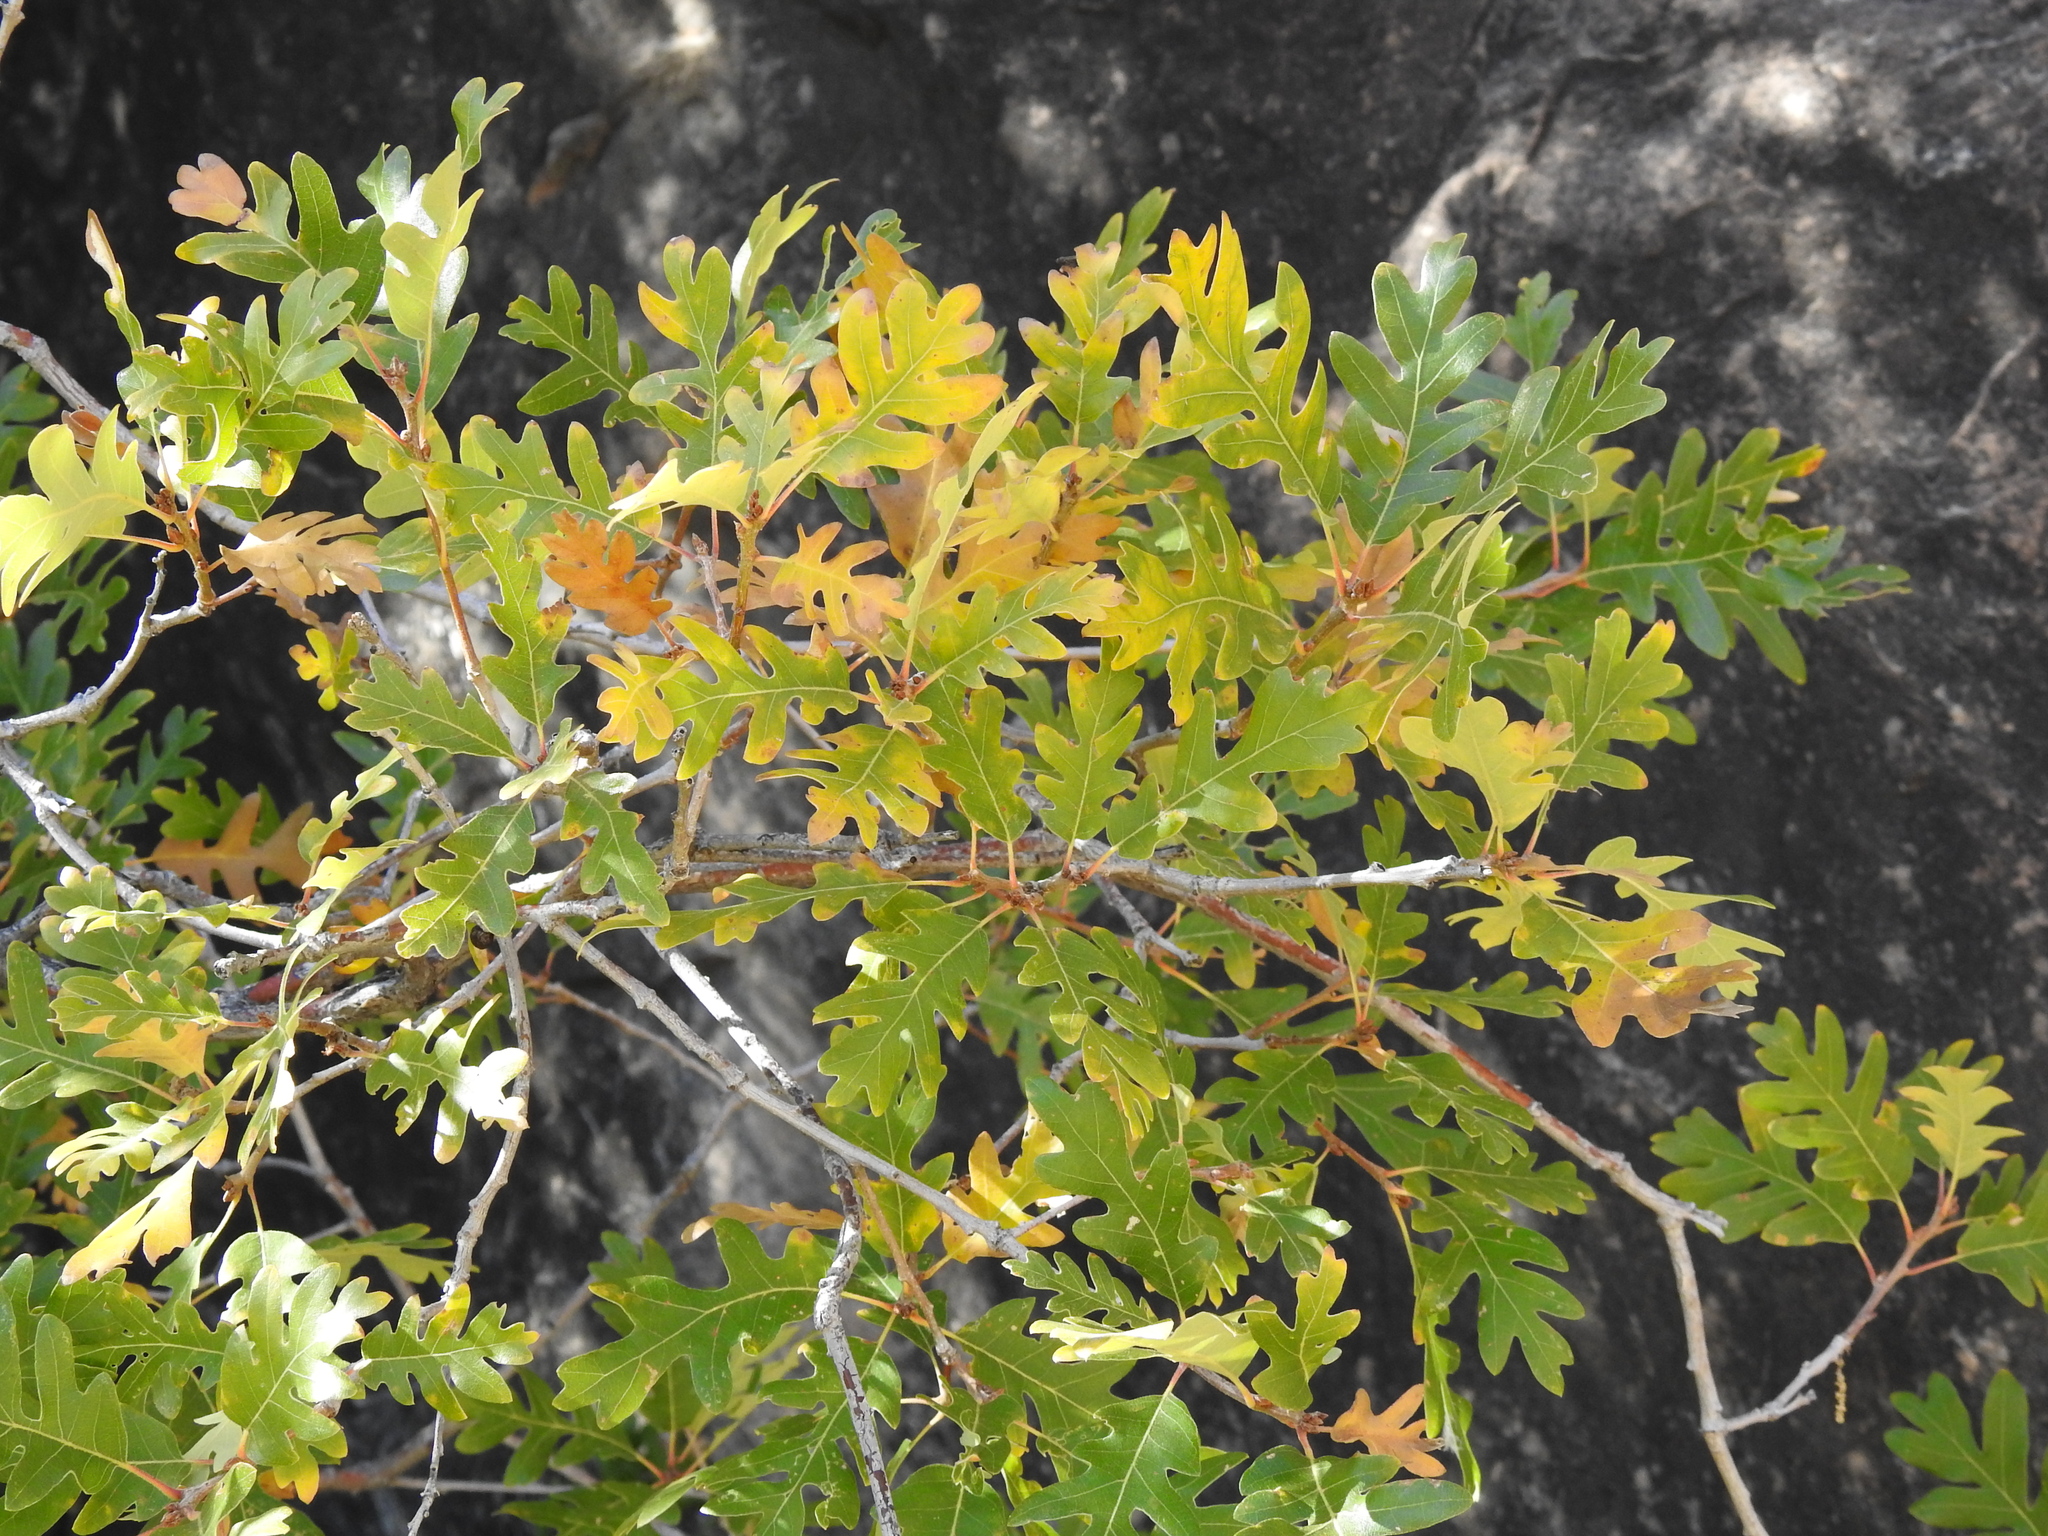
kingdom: Plantae
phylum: Tracheophyta
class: Magnoliopsida
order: Fagales
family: Fagaceae
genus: Quercus
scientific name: Quercus gambelii
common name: Gambel oak
